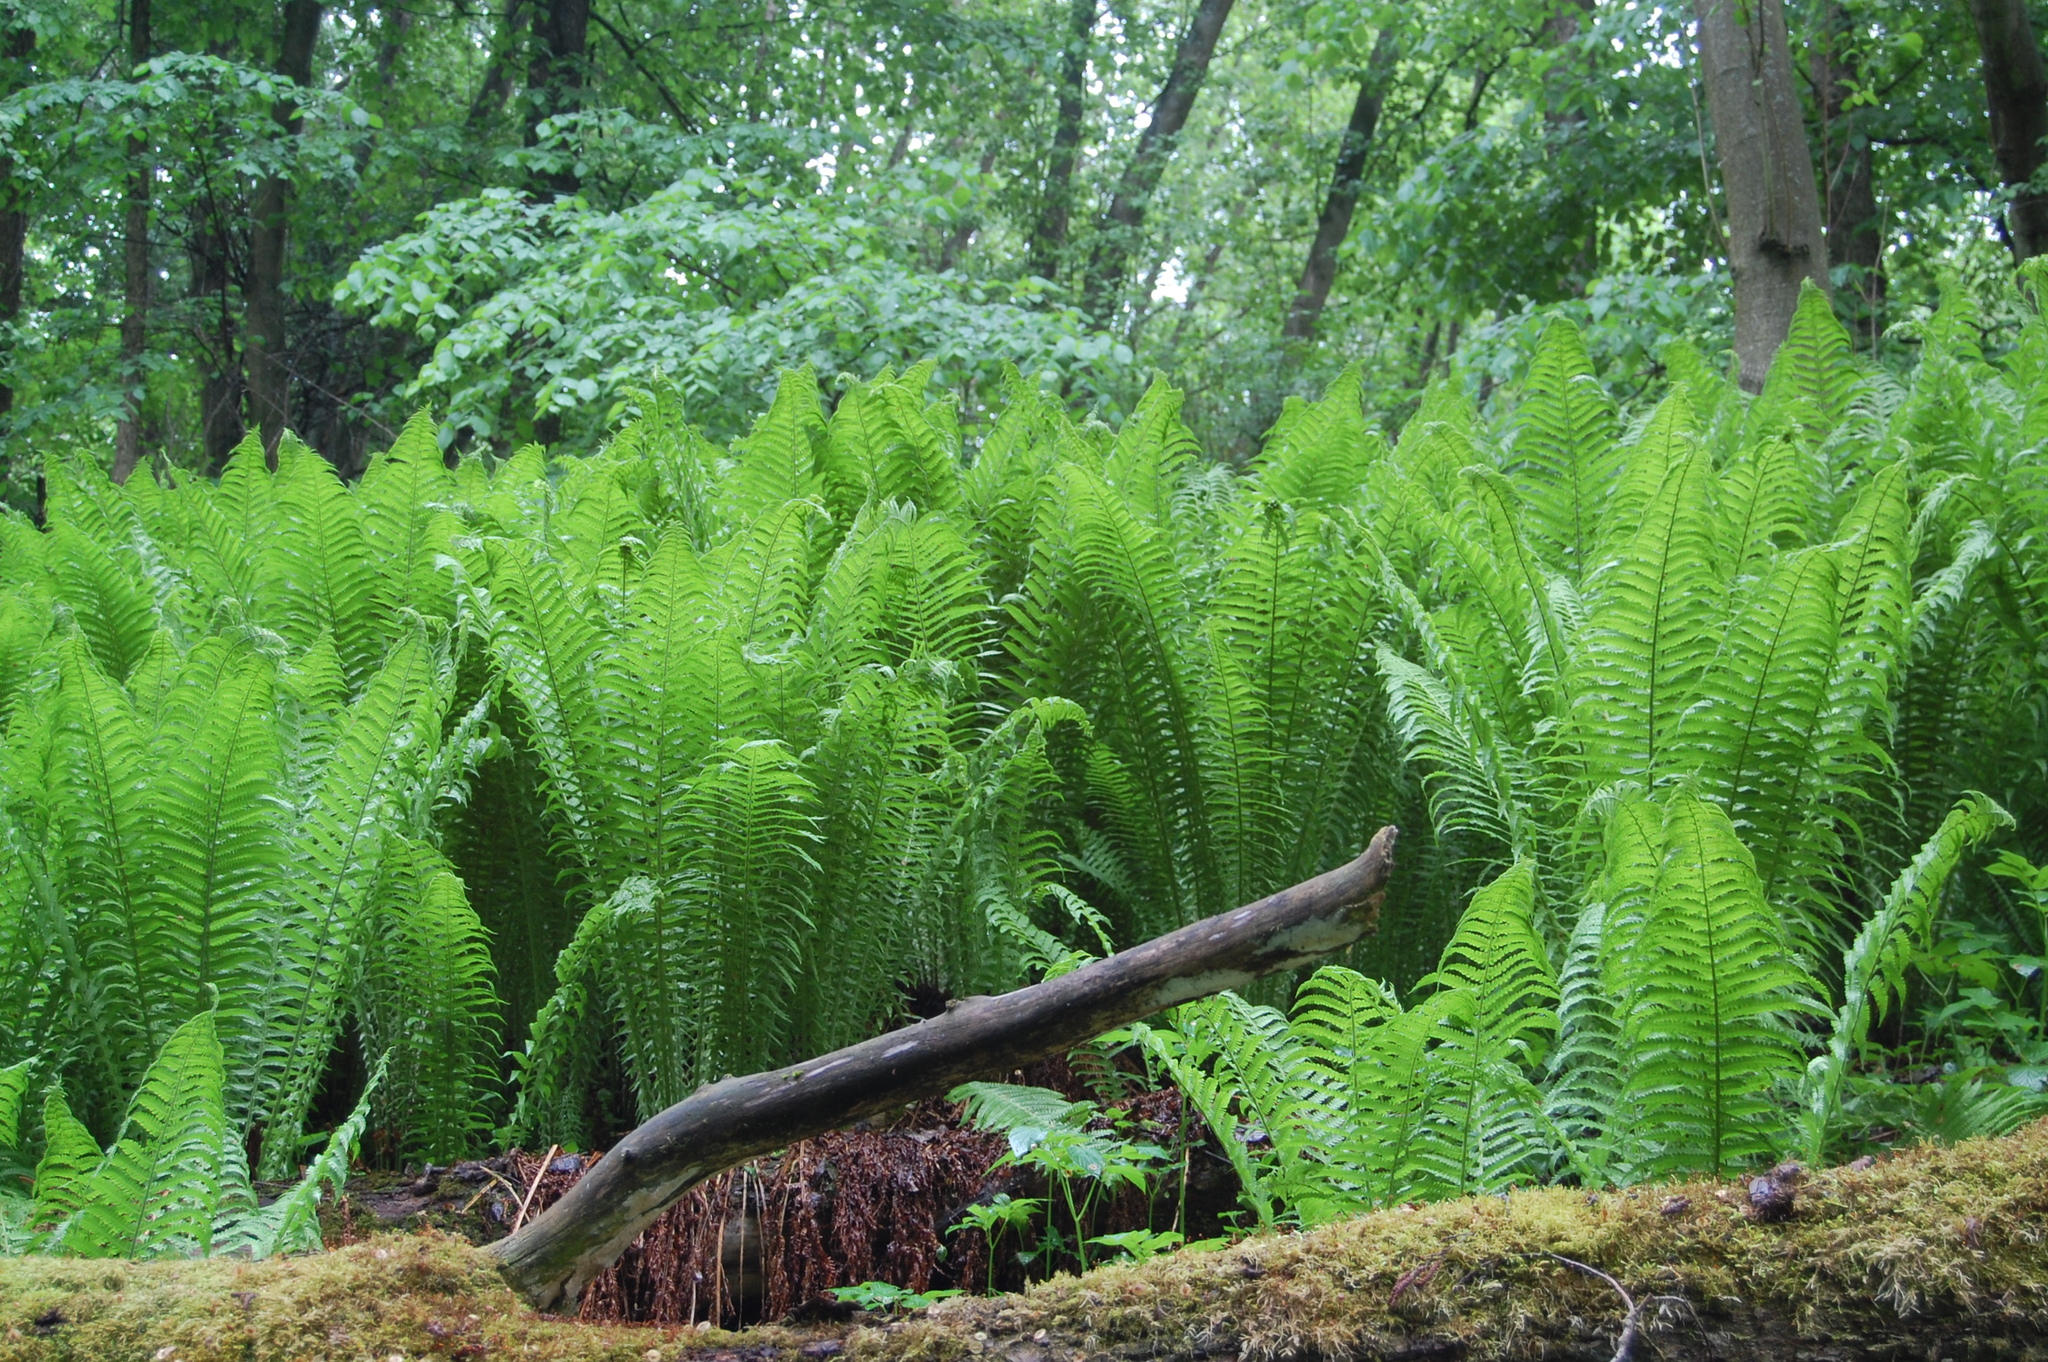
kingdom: Plantae
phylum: Tracheophyta
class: Polypodiopsida
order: Polypodiales
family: Onocleaceae
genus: Matteuccia
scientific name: Matteuccia struthiopteris
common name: Ostrich fern
